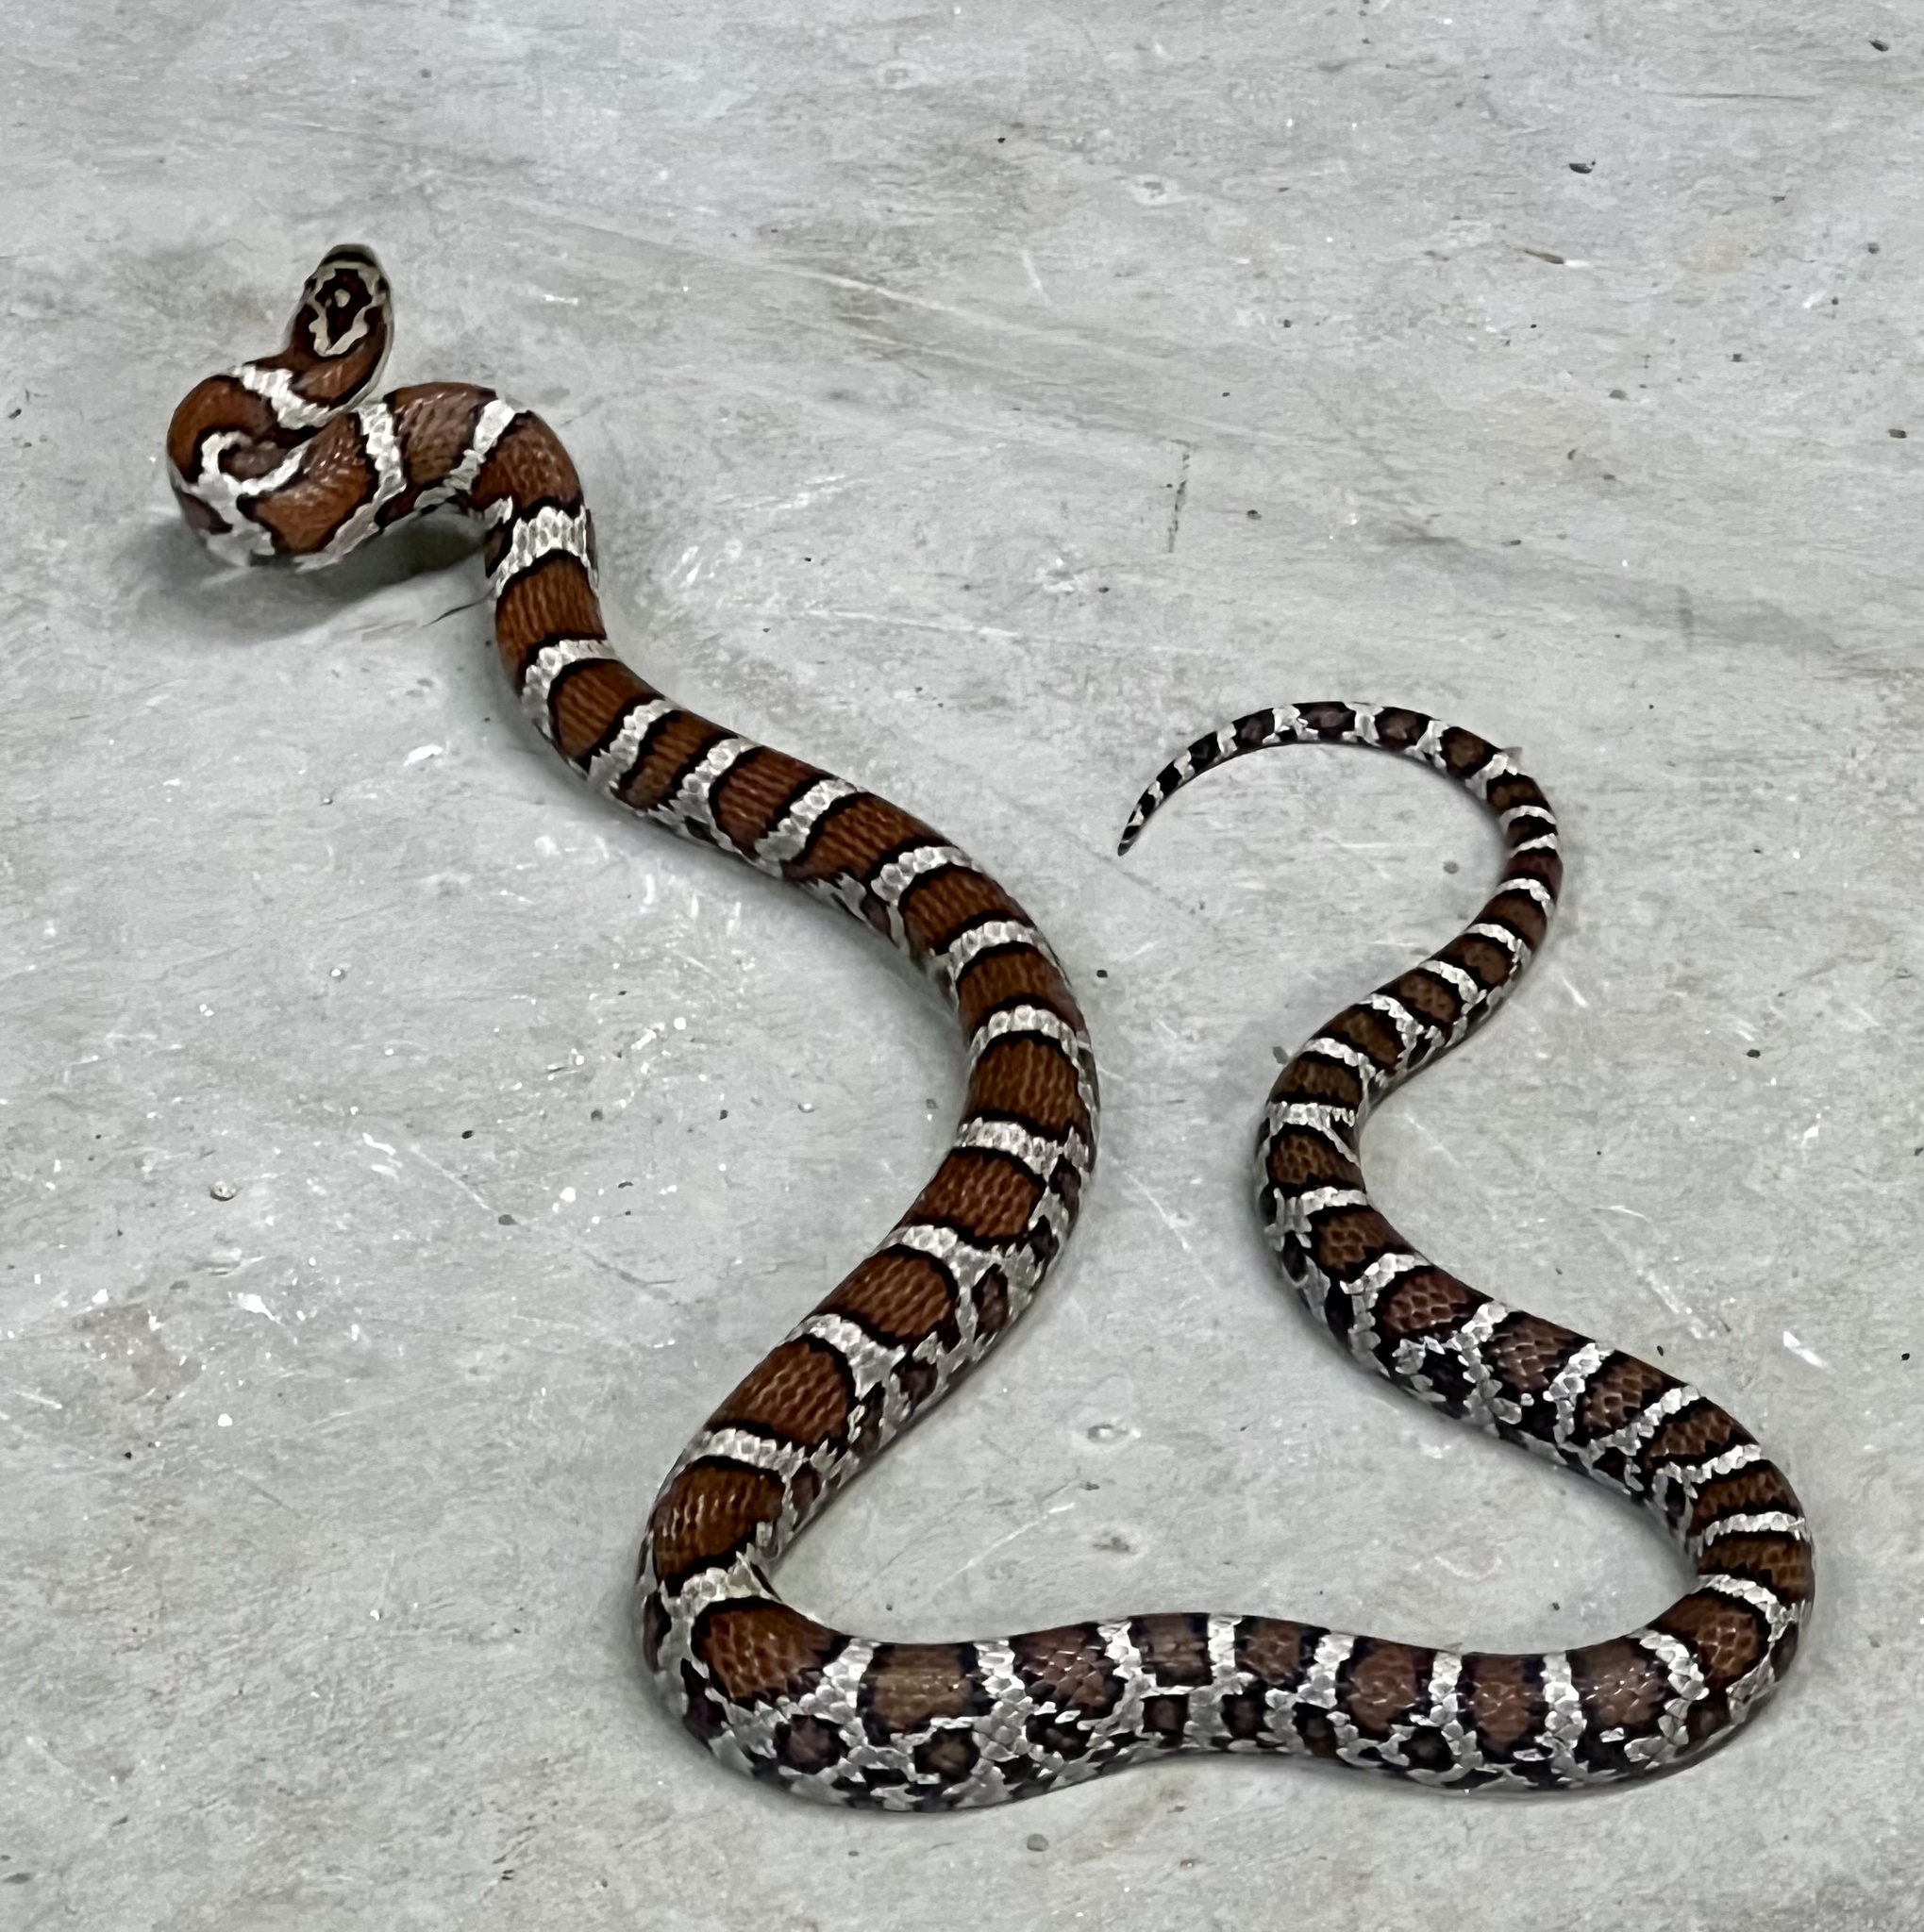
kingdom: Animalia
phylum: Chordata
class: Squamata
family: Colubridae
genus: Lampropeltis
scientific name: Lampropeltis triangulum
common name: Eastern milksnake
